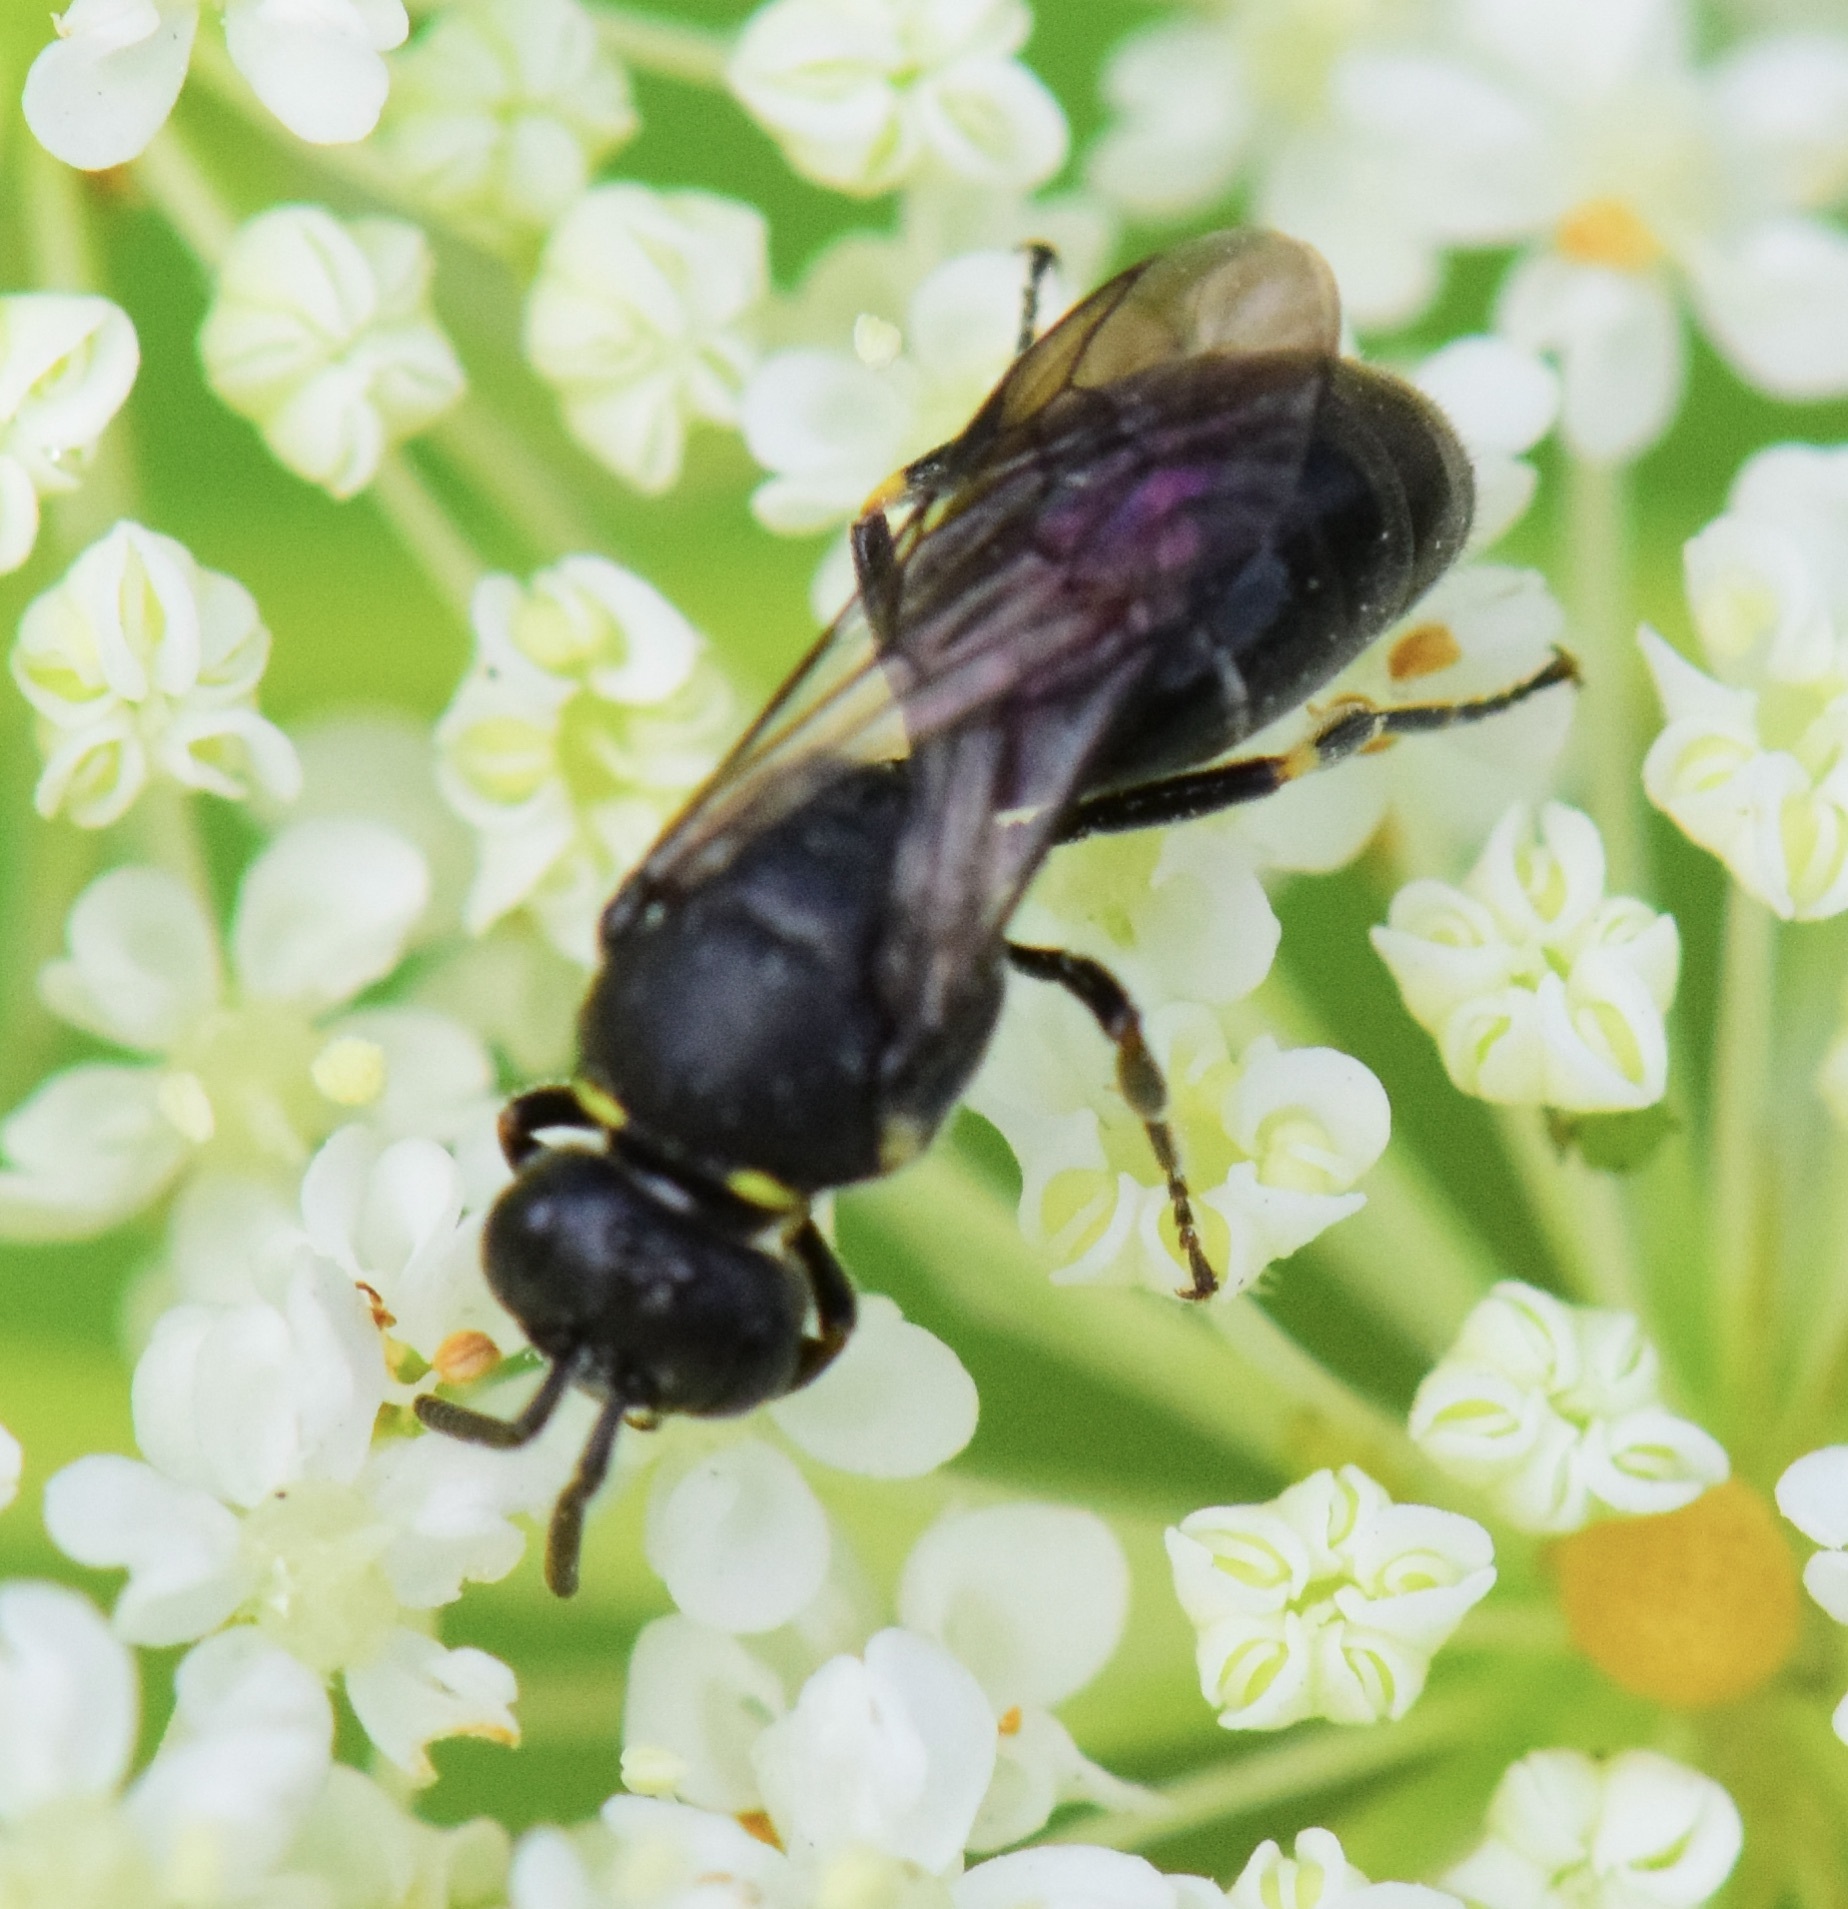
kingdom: Animalia
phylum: Arthropoda
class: Insecta
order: Hymenoptera
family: Colletidae
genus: Hylaeus
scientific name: Hylaeus modestus
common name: Yellow-faced bee
